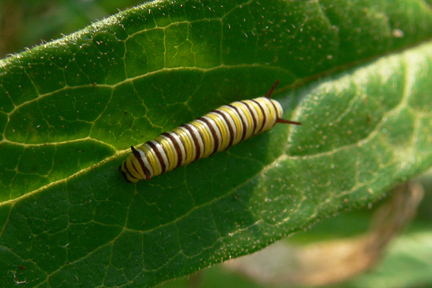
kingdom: Animalia
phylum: Arthropoda
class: Insecta
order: Lepidoptera
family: Nymphalidae
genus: Danaus
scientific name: Danaus plexippus
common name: Monarch
